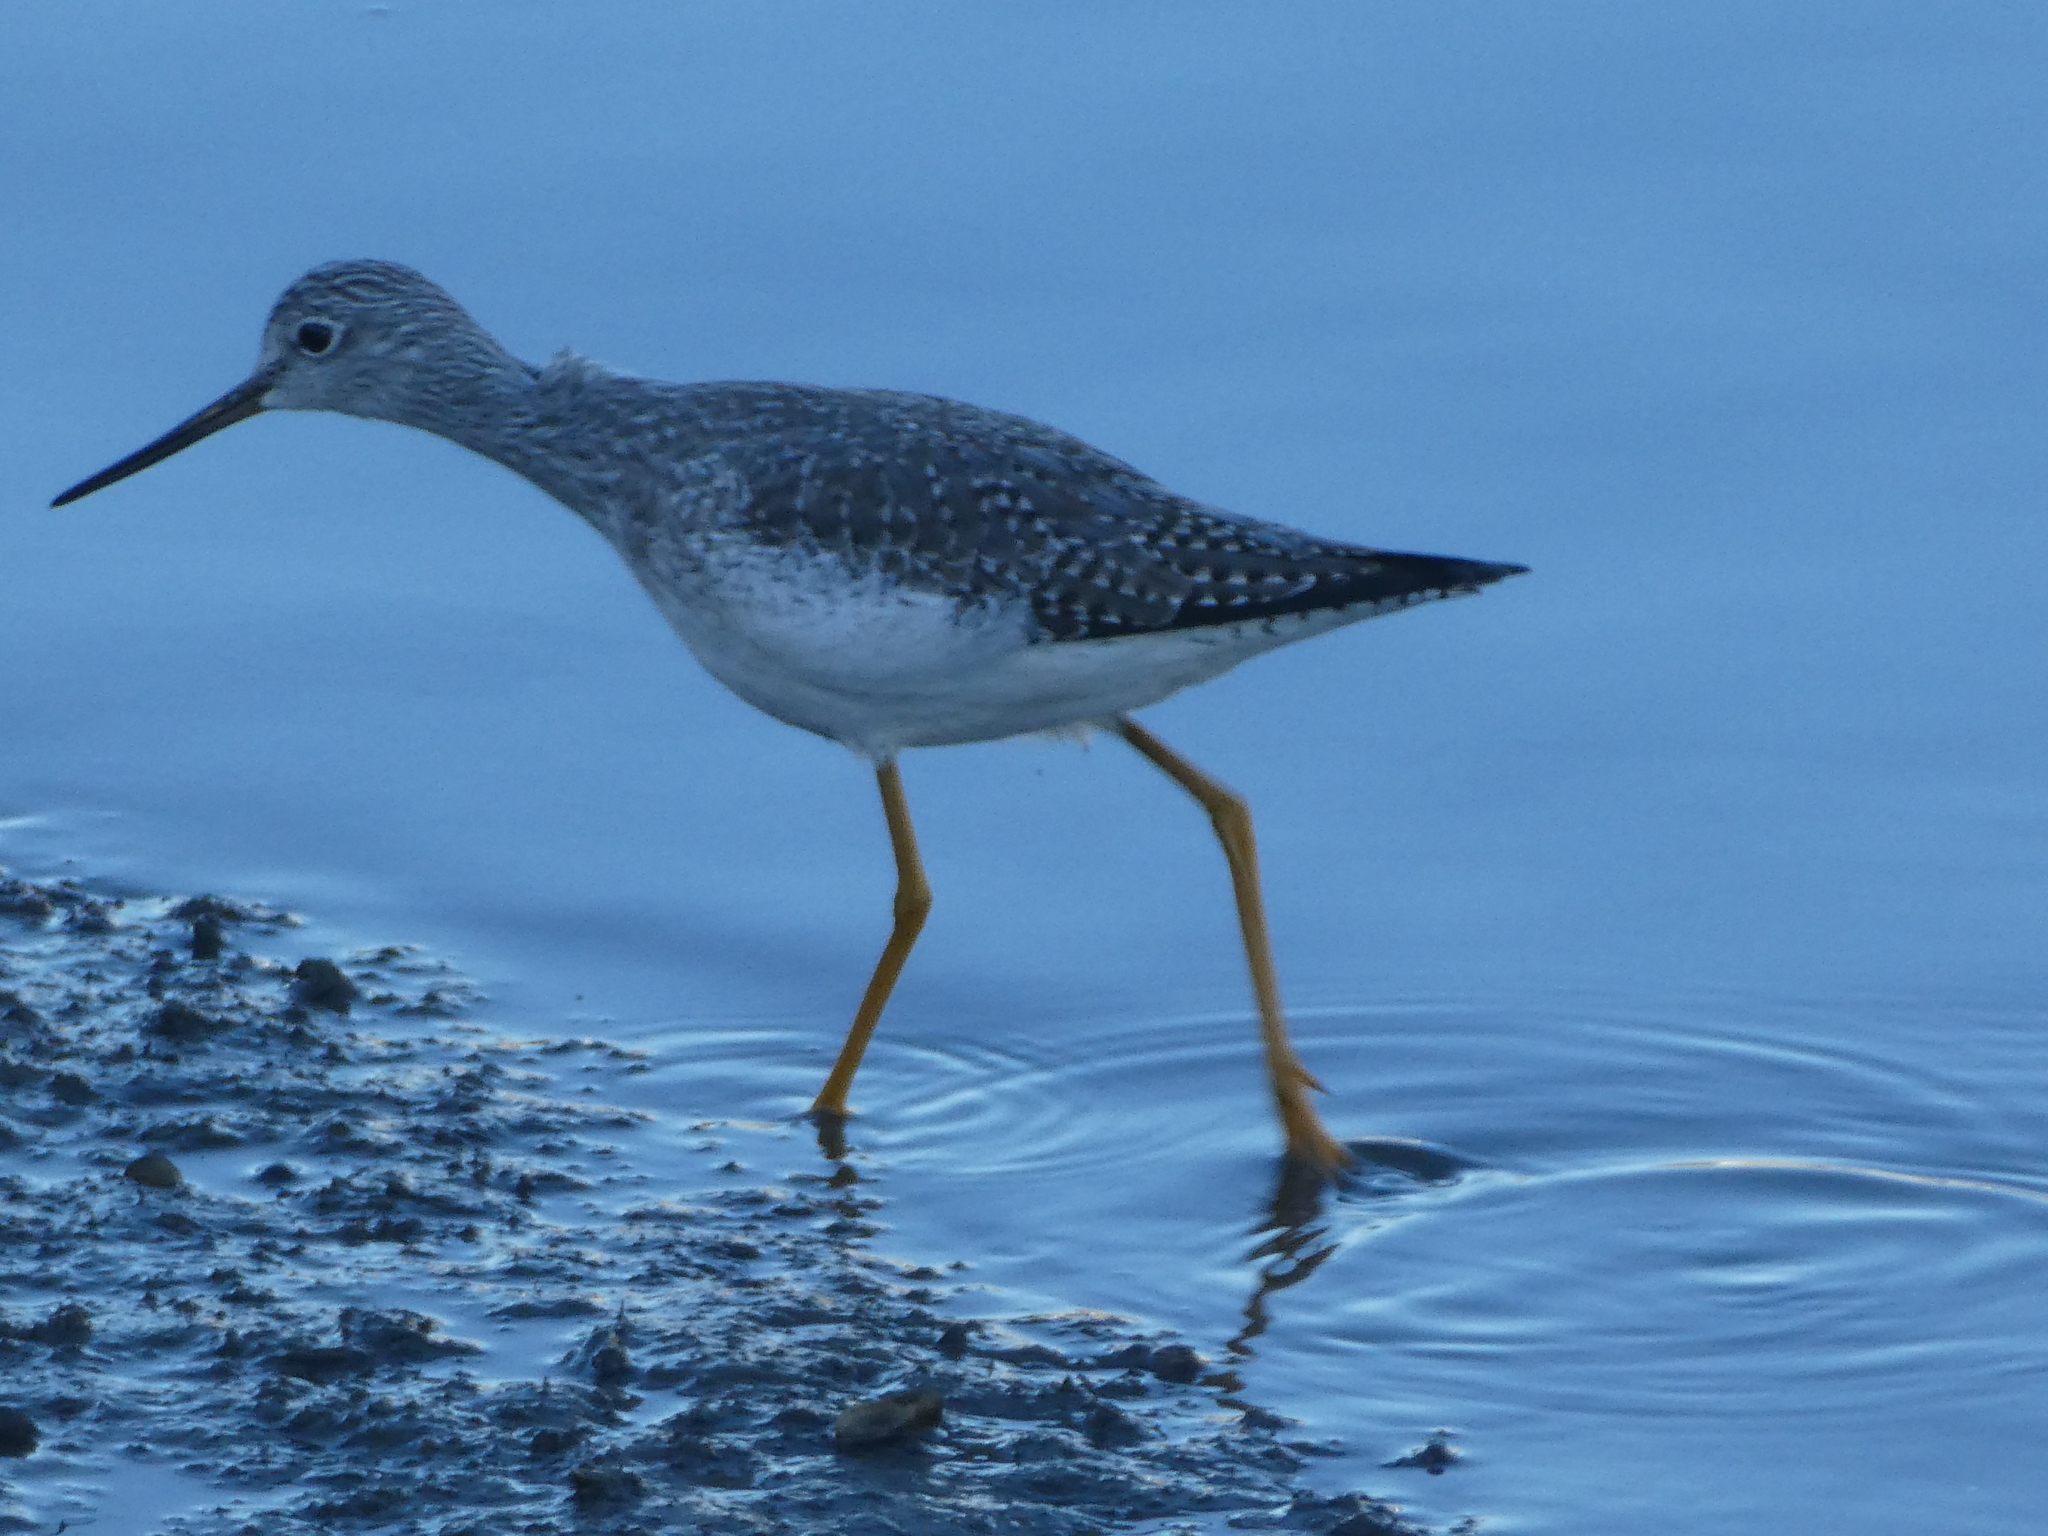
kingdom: Animalia
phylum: Chordata
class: Aves
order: Charadriiformes
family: Scolopacidae
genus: Tringa
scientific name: Tringa melanoleuca
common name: Greater yellowlegs
